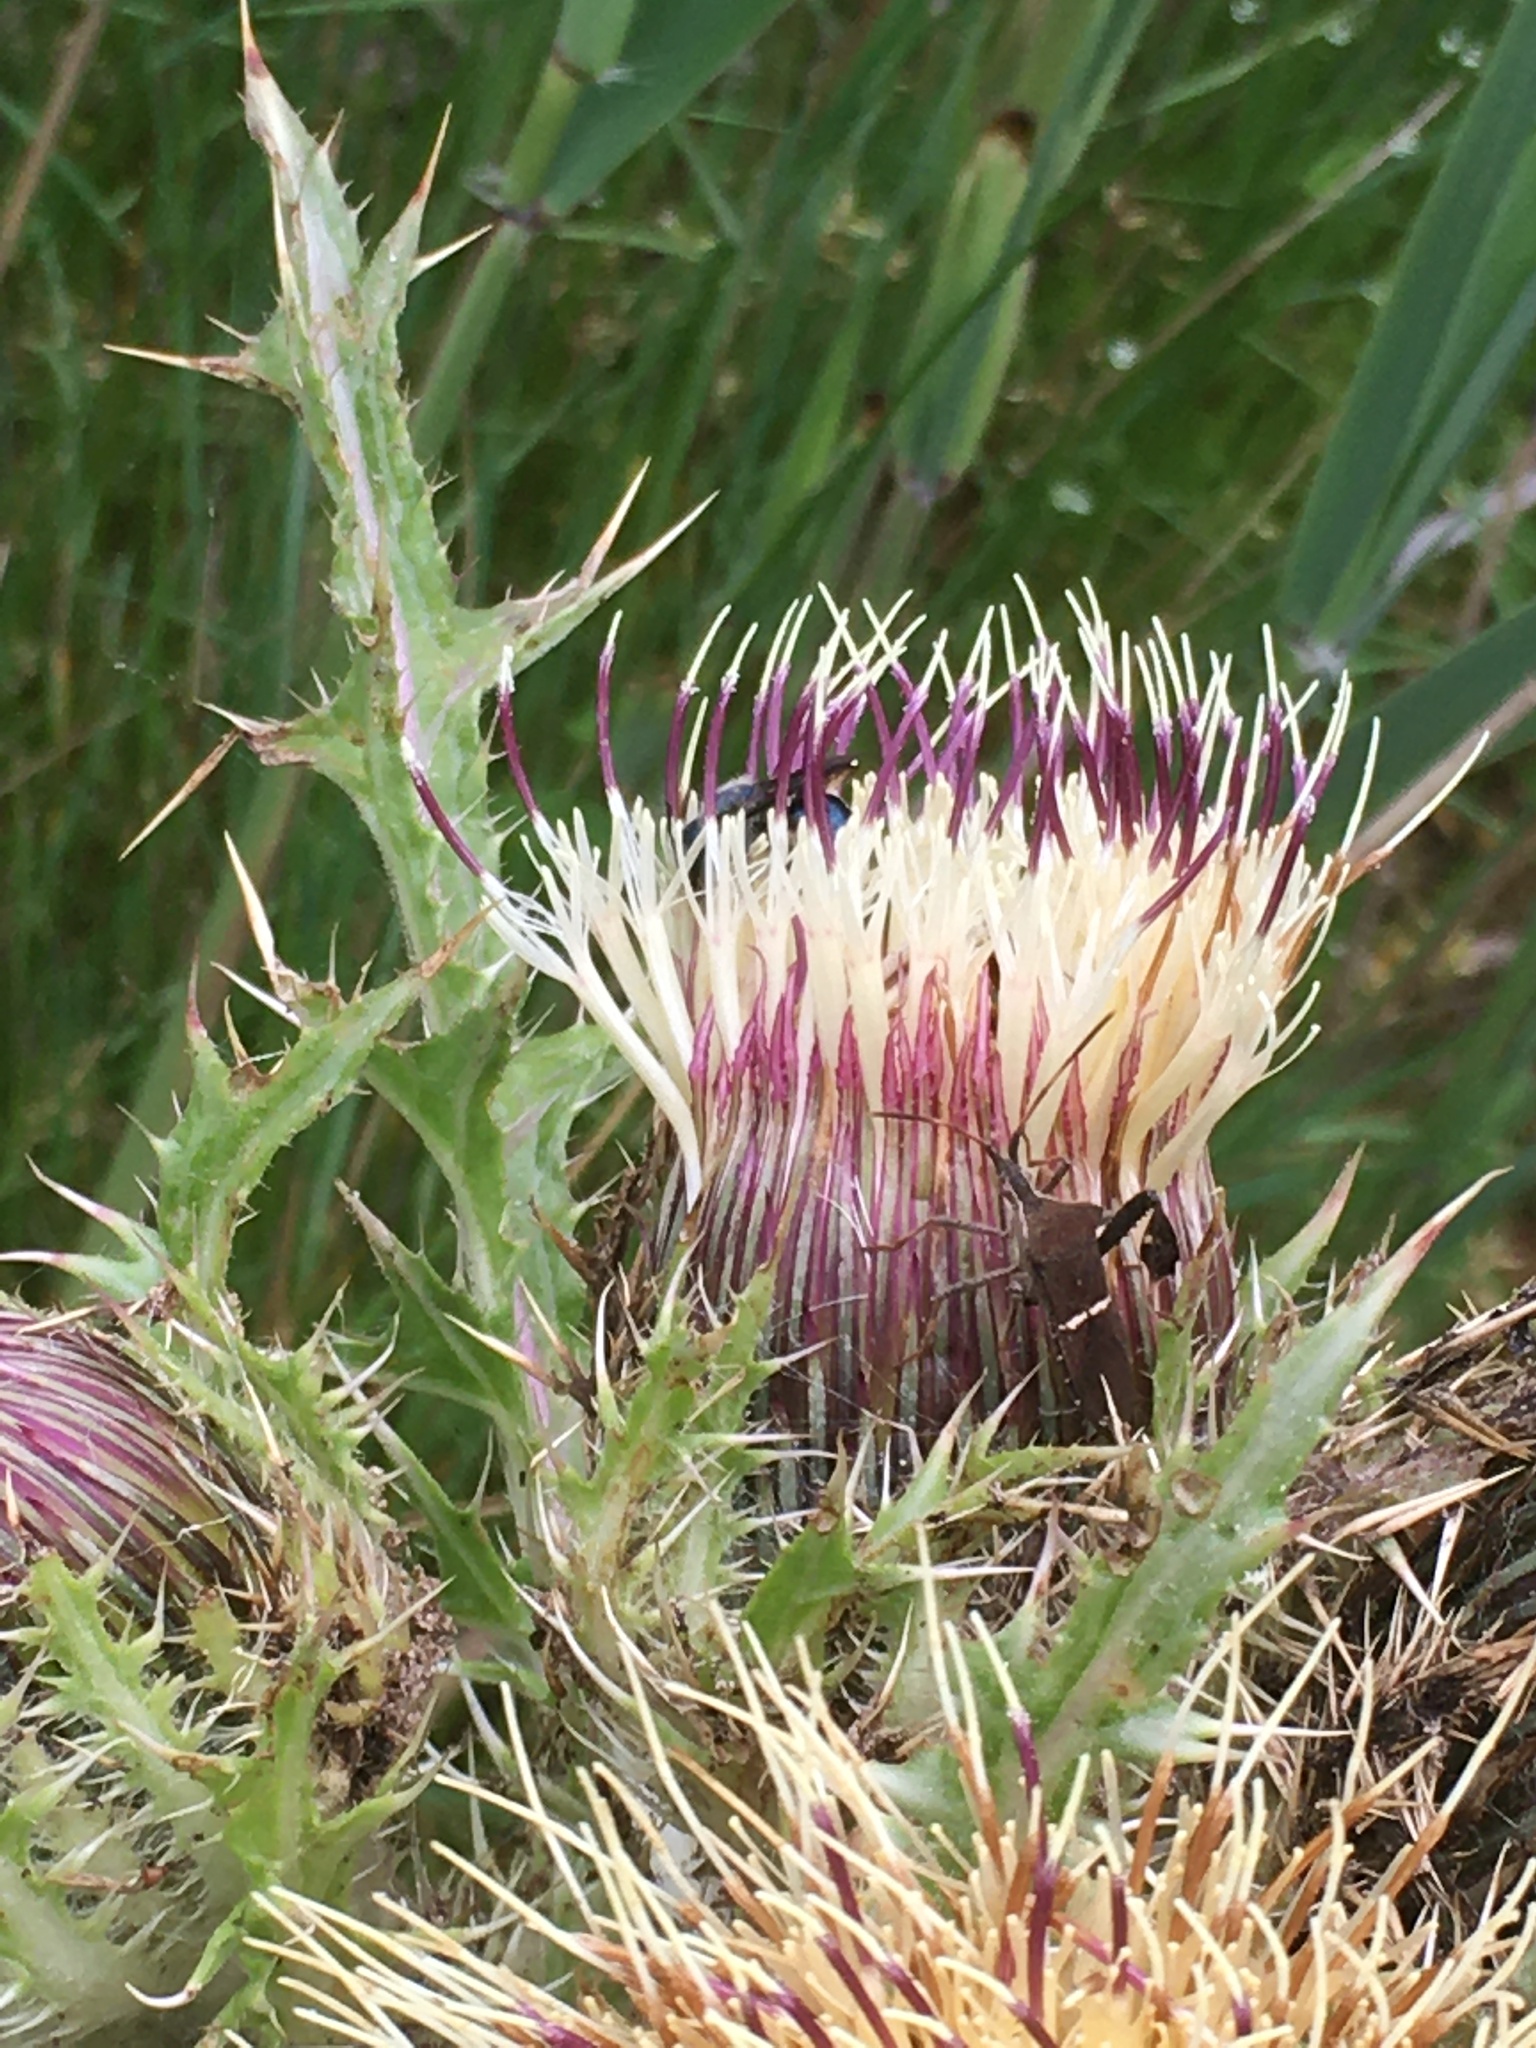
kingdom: Animalia
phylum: Arthropoda
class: Insecta
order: Hemiptera
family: Coreidae
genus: Leptoglossus
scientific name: Leptoglossus phyllopus
